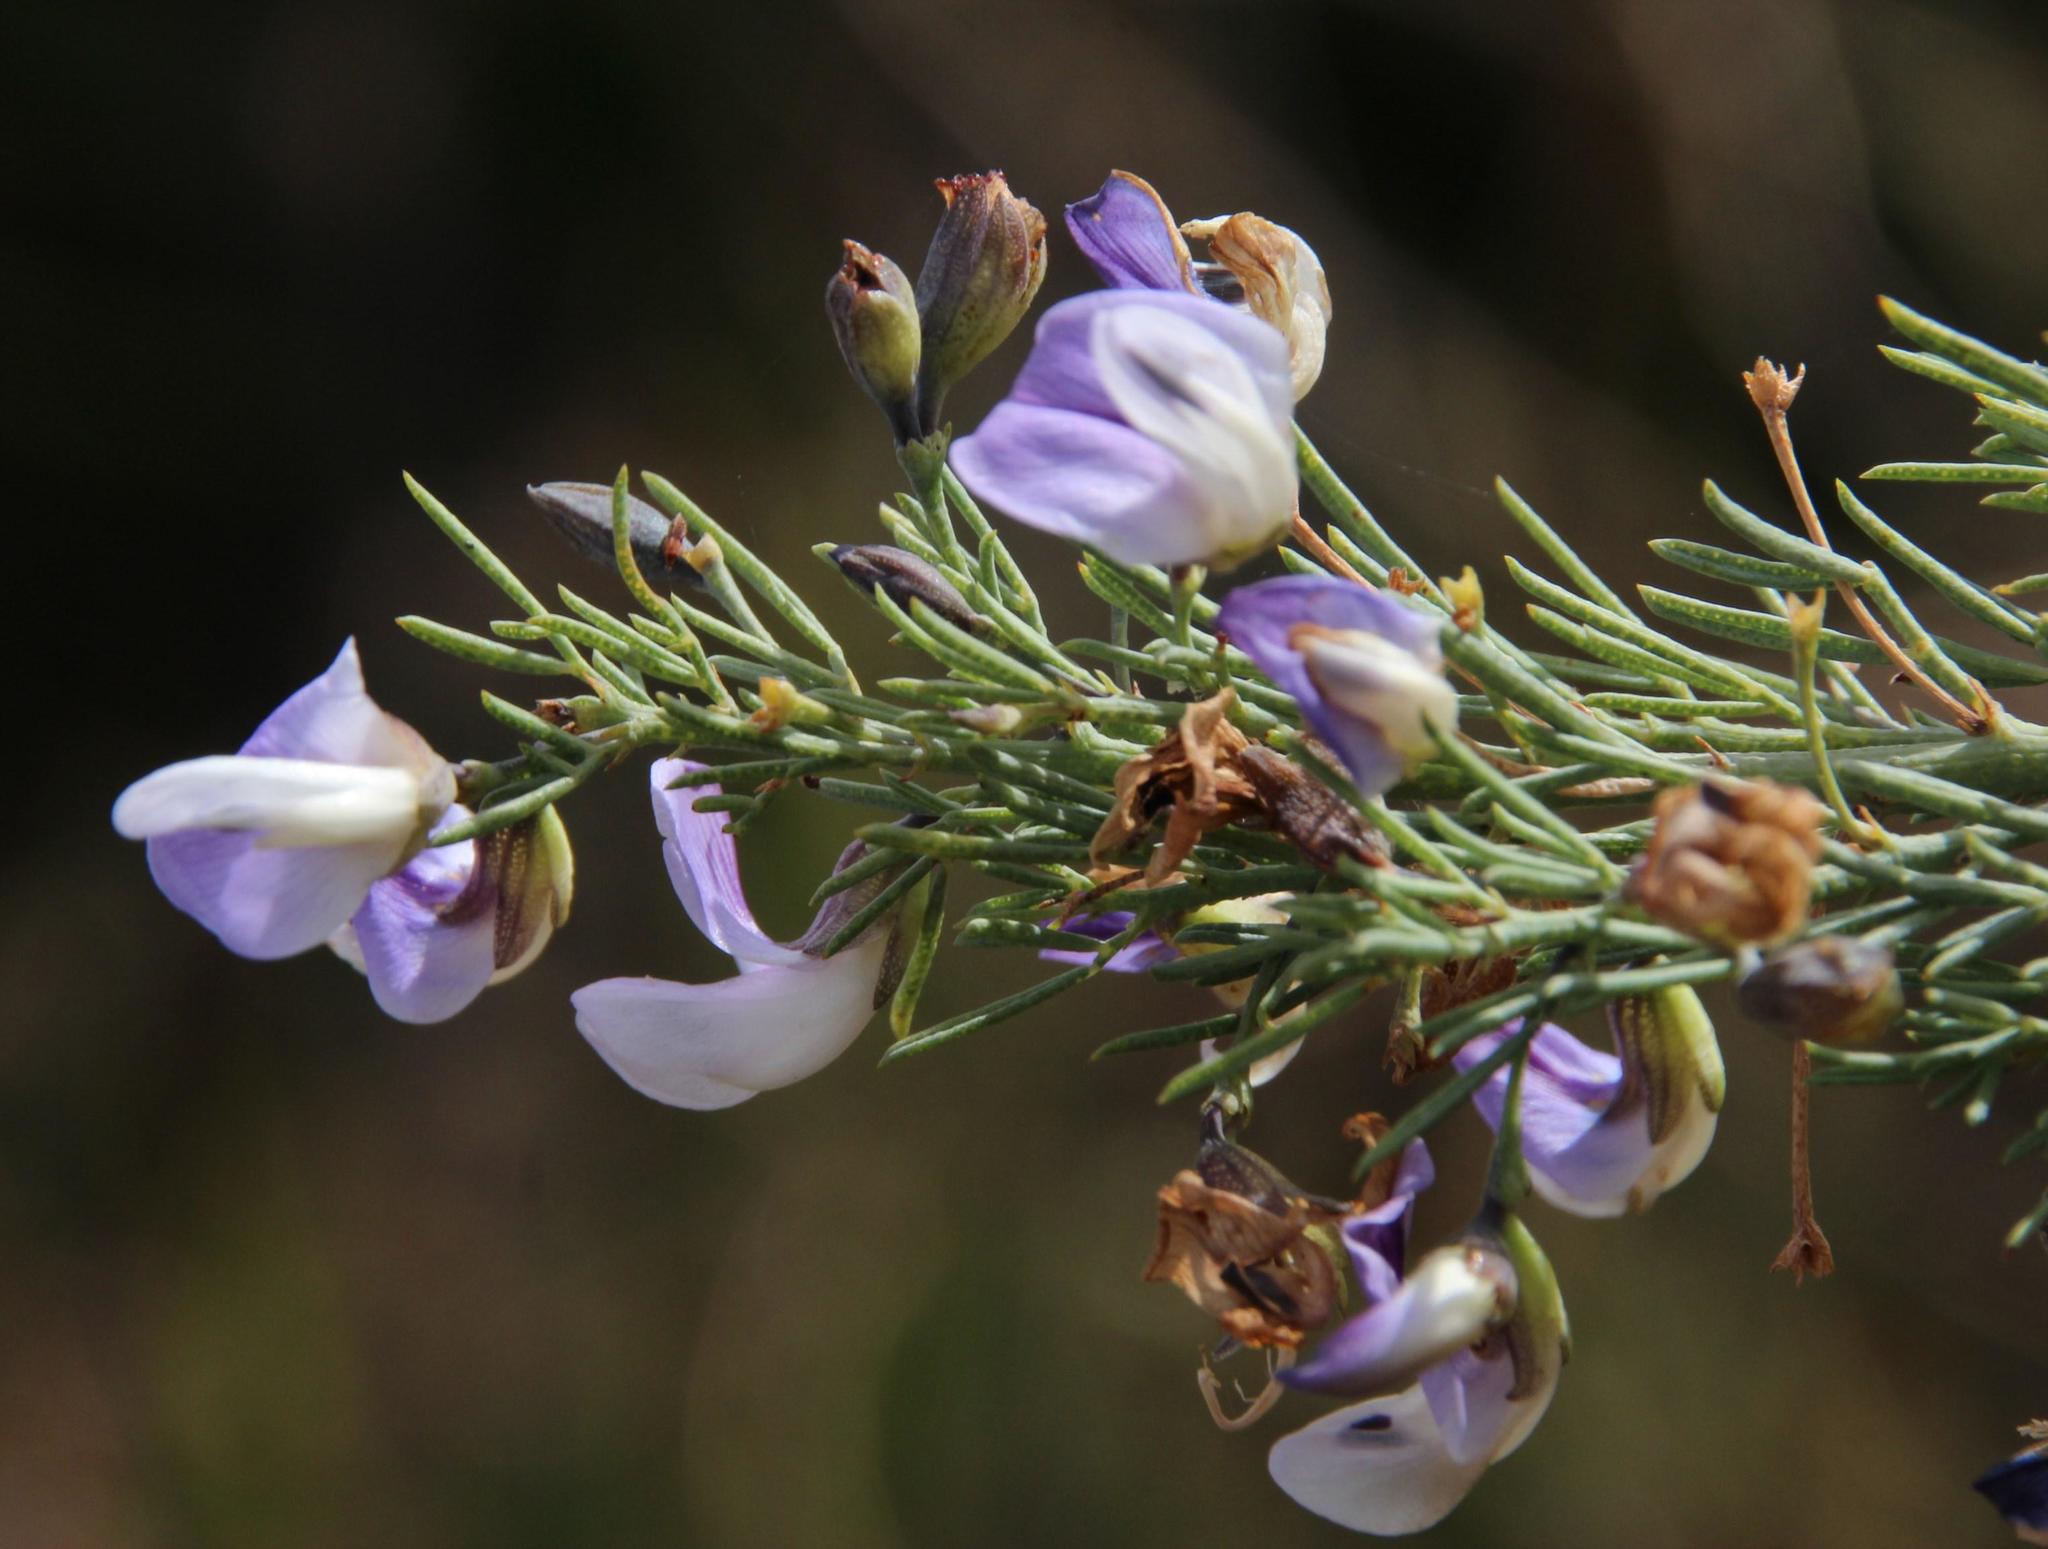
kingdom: Plantae
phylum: Tracheophyta
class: Magnoliopsida
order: Fabales
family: Fabaceae
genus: Psoralea
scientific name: Psoralea
